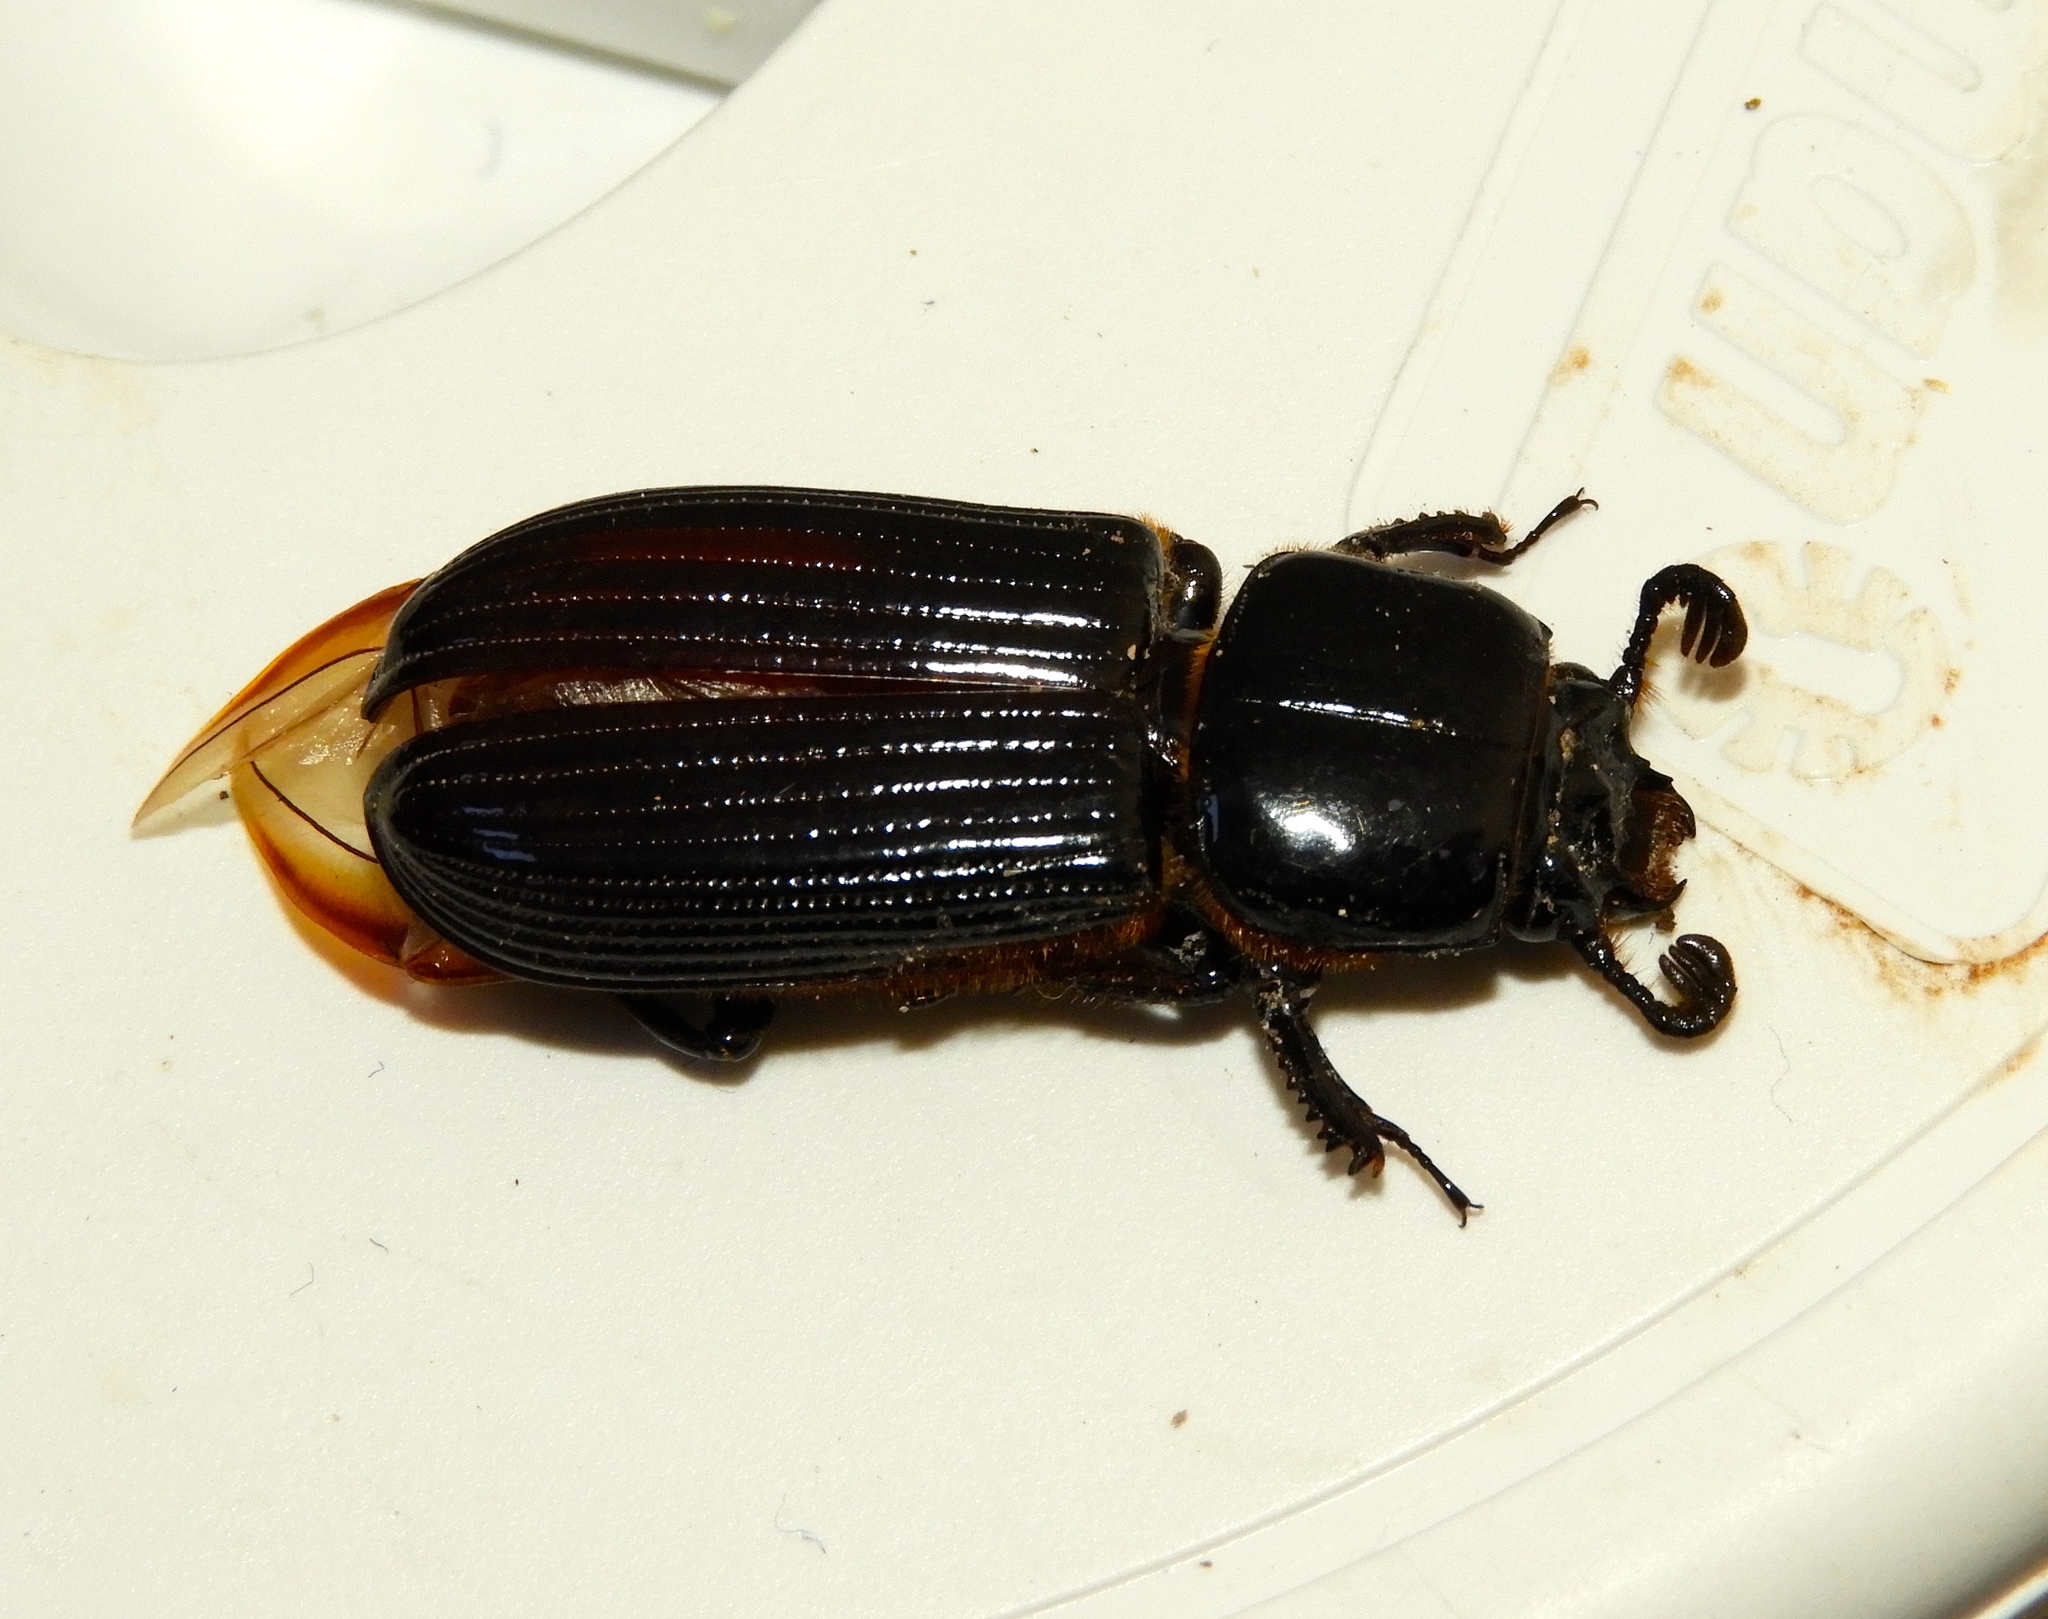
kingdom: Animalia
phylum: Arthropoda
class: Insecta
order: Coleoptera
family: Passalidae
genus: Passalus
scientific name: Passalus
